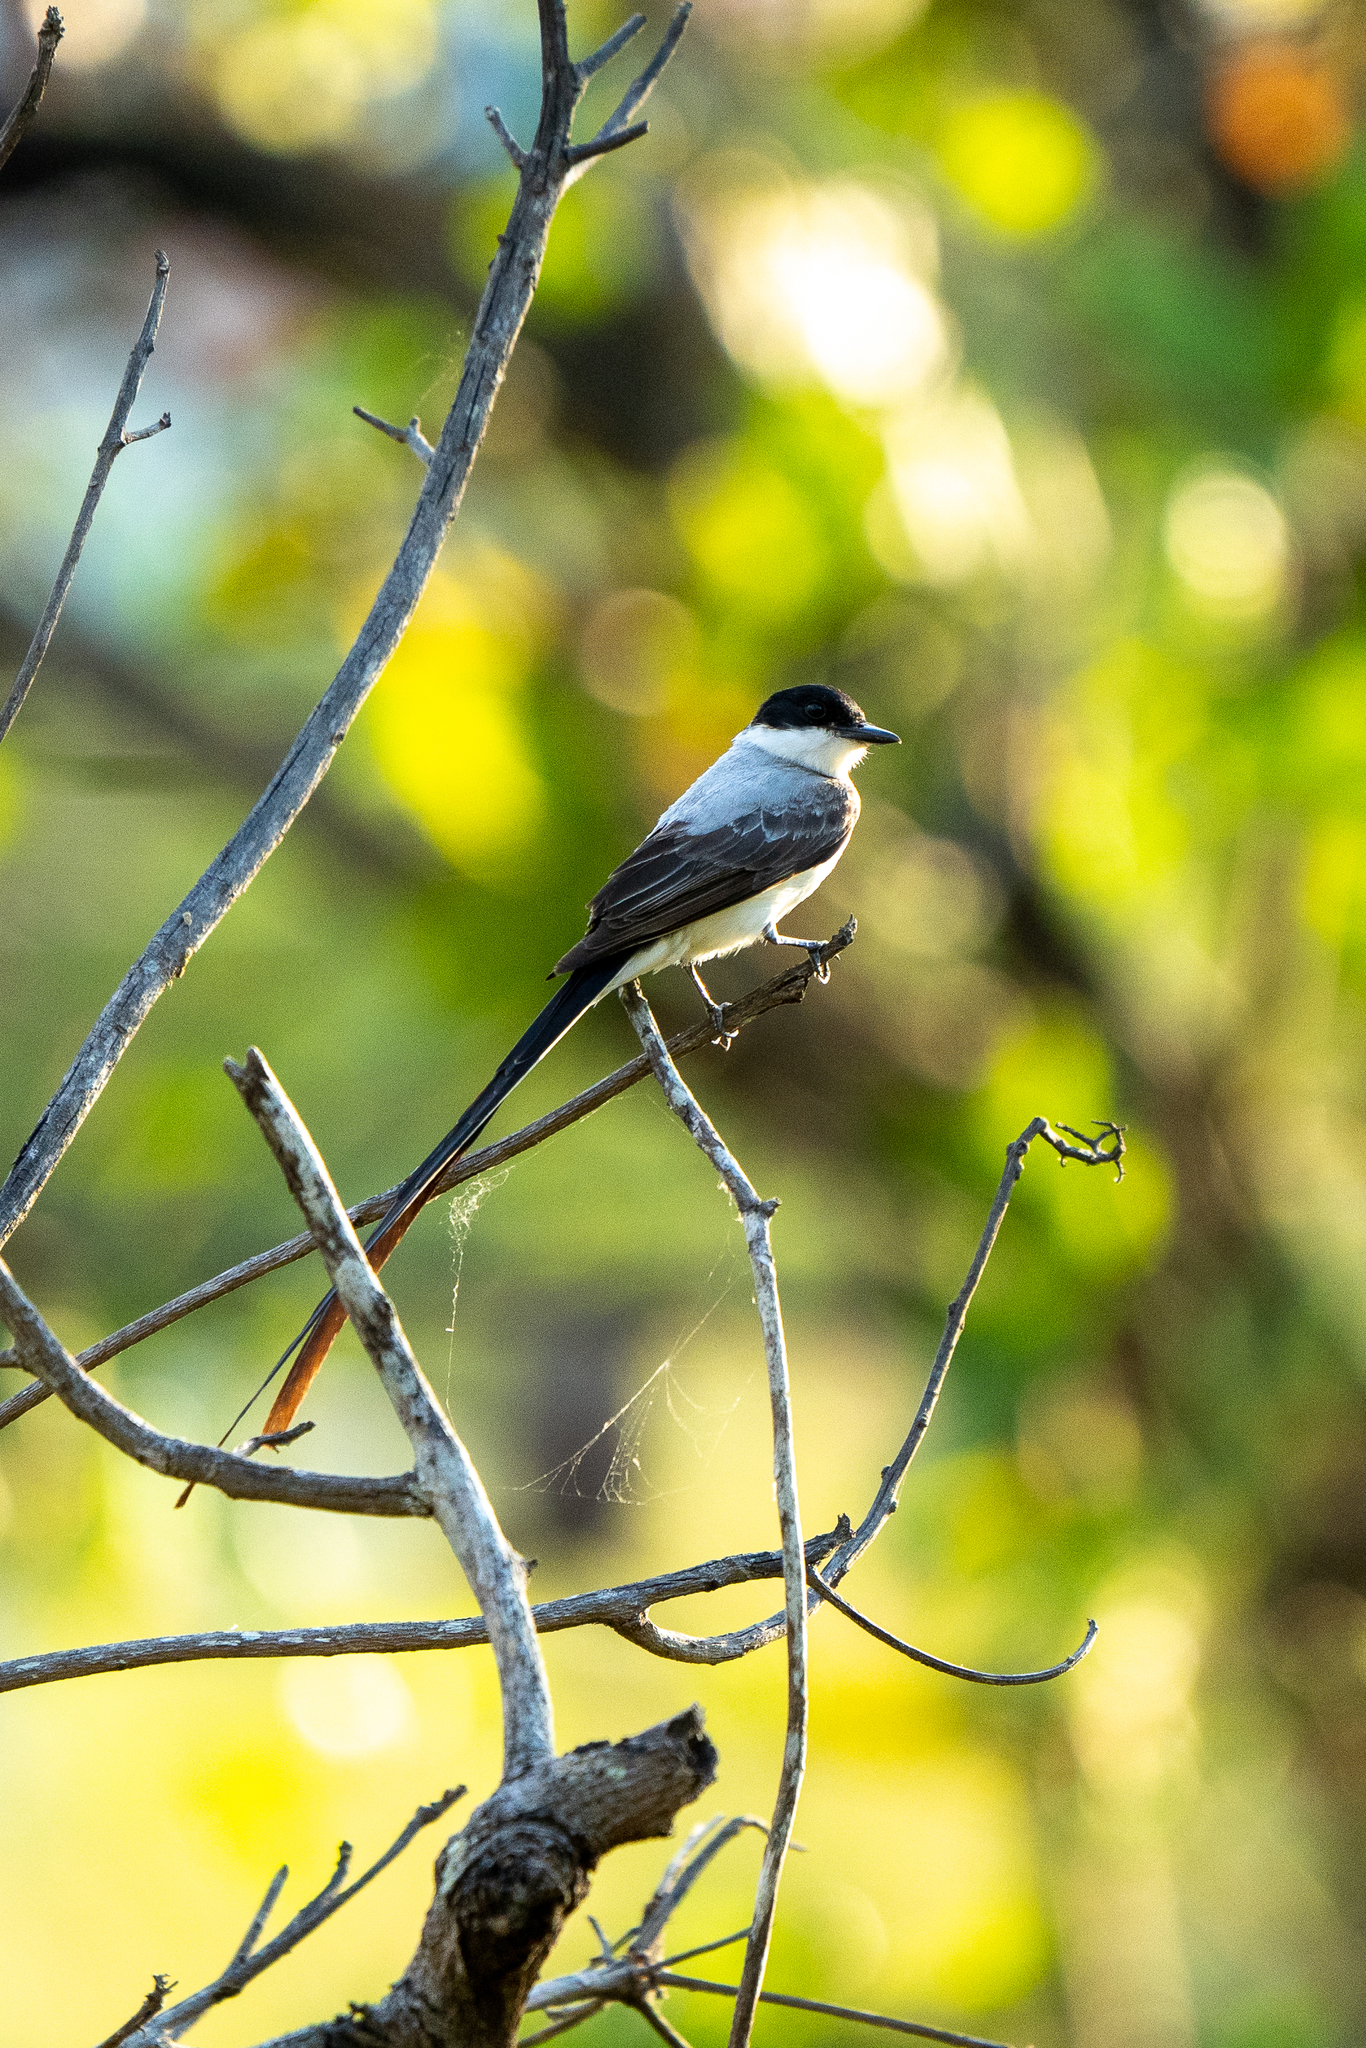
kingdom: Animalia
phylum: Chordata
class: Aves
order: Passeriformes
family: Tyrannidae
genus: Tyrannus
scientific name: Tyrannus savana
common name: Fork-tailed flycatcher
